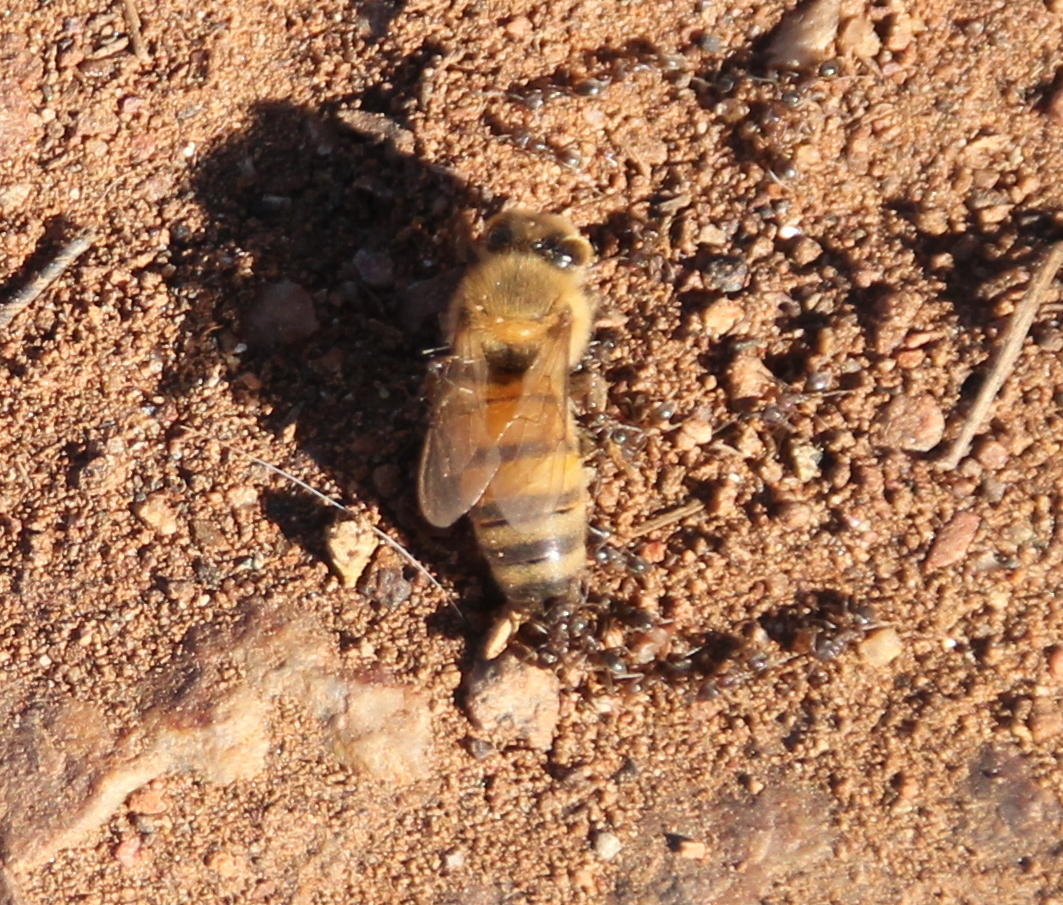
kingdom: Animalia
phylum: Arthropoda
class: Insecta
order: Hymenoptera
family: Apidae
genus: Apis
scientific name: Apis mellifera
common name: Honey bee
